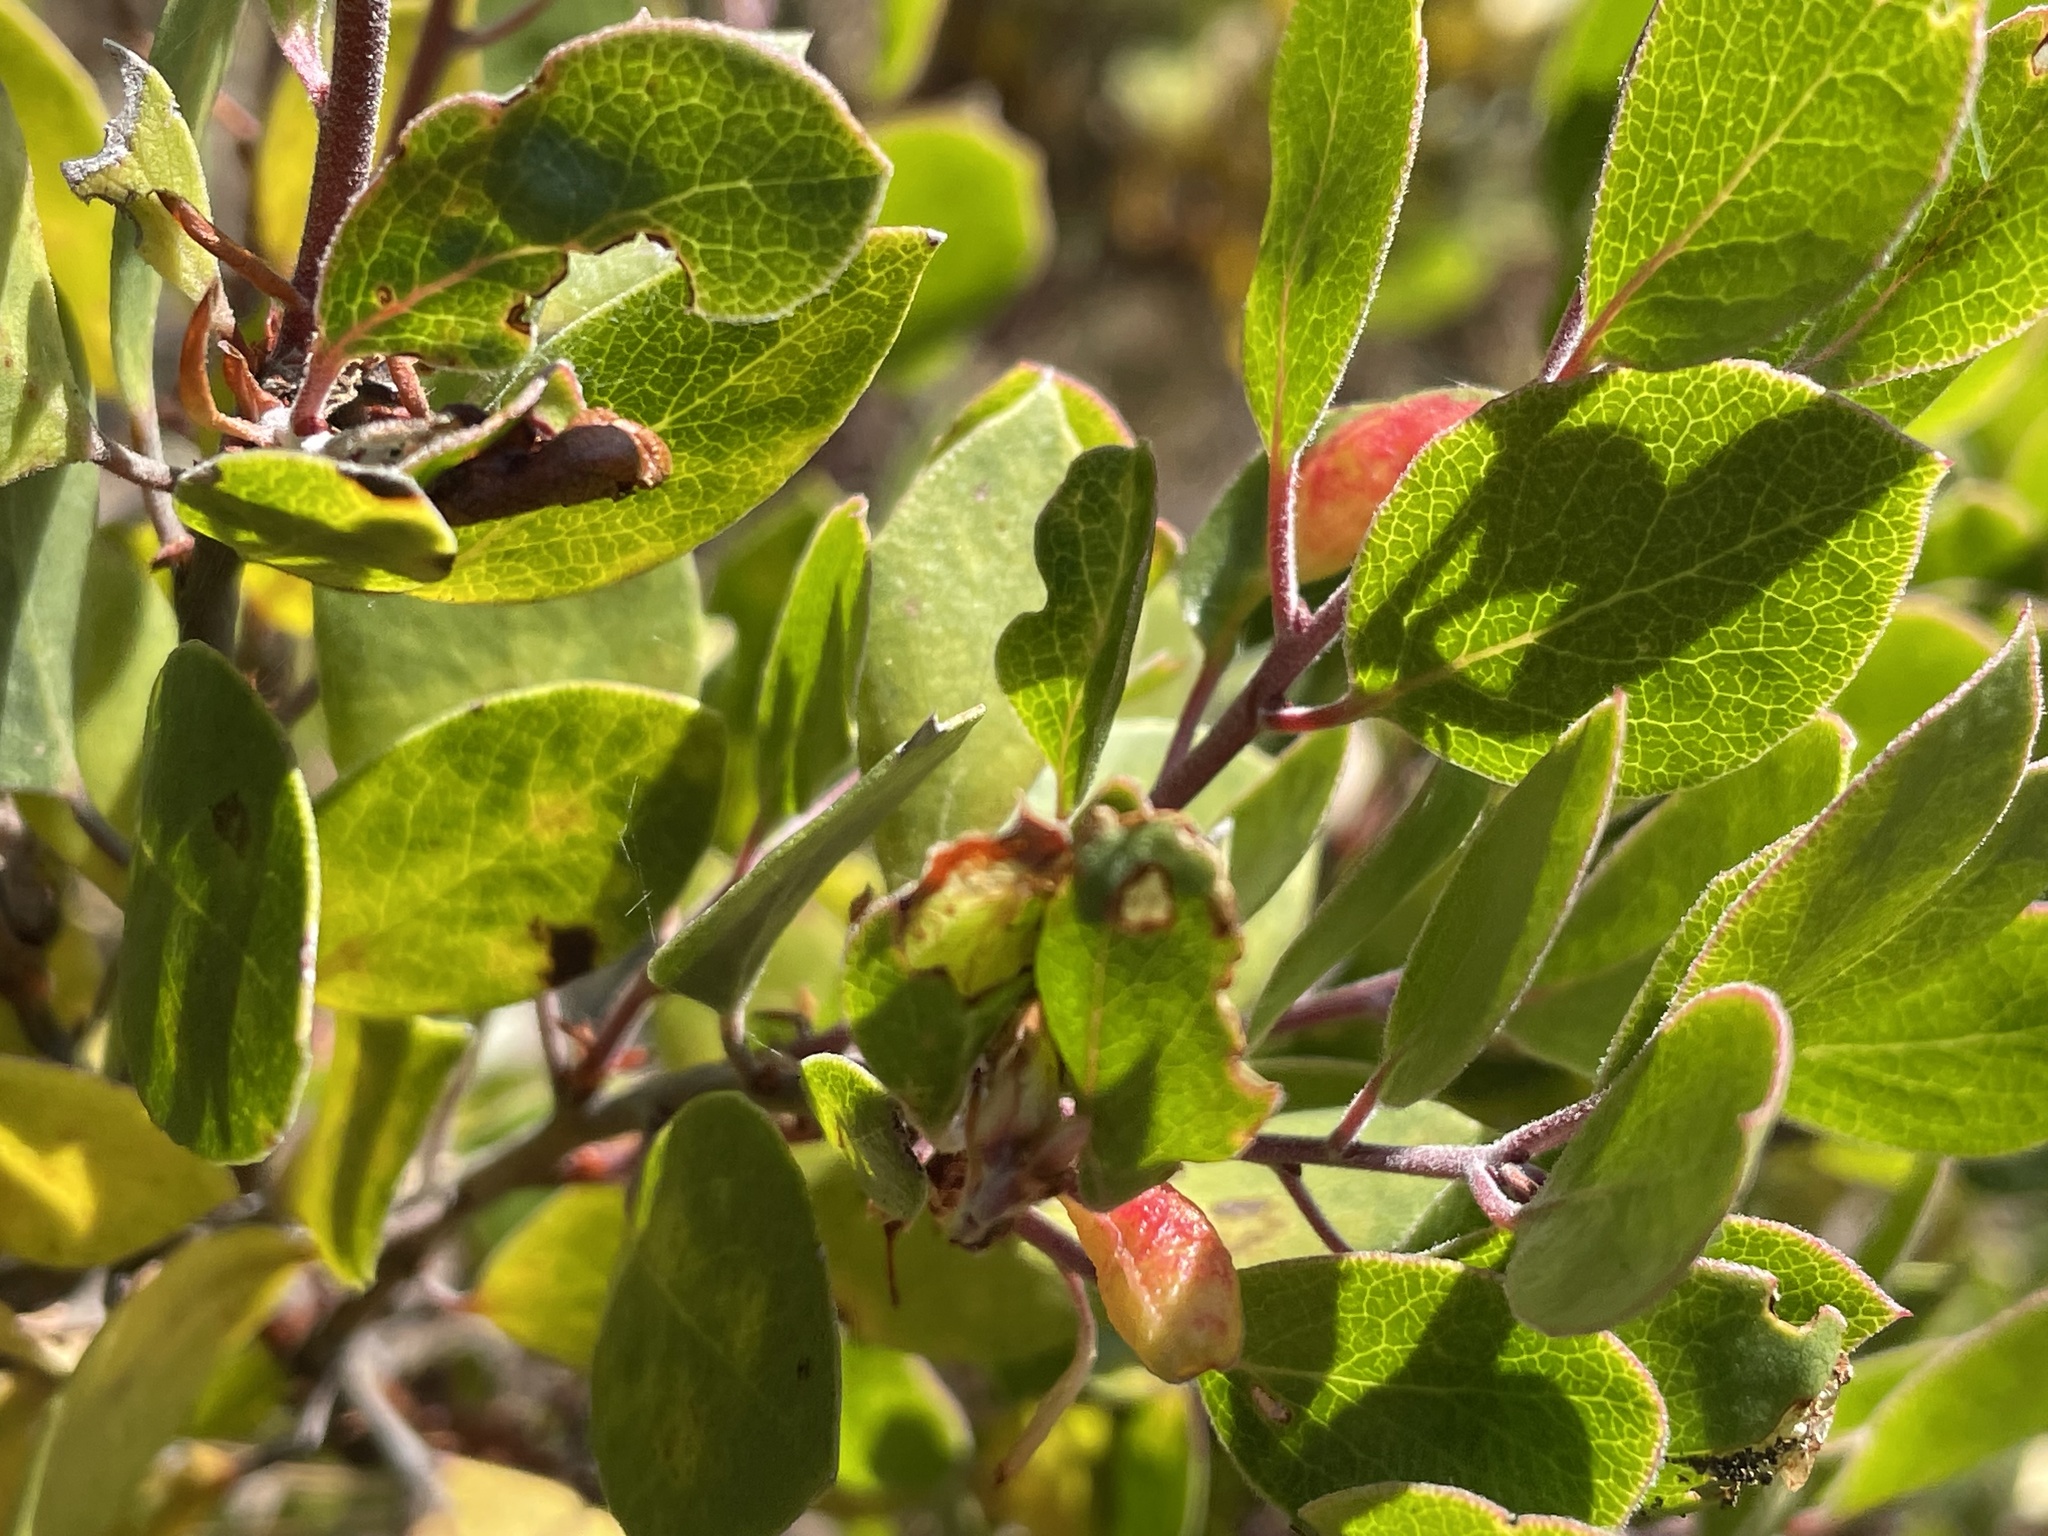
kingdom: Plantae
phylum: Tracheophyta
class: Magnoliopsida
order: Ericales
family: Ericaceae
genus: Arctostaphylos
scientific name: Arctostaphylos hookeri
